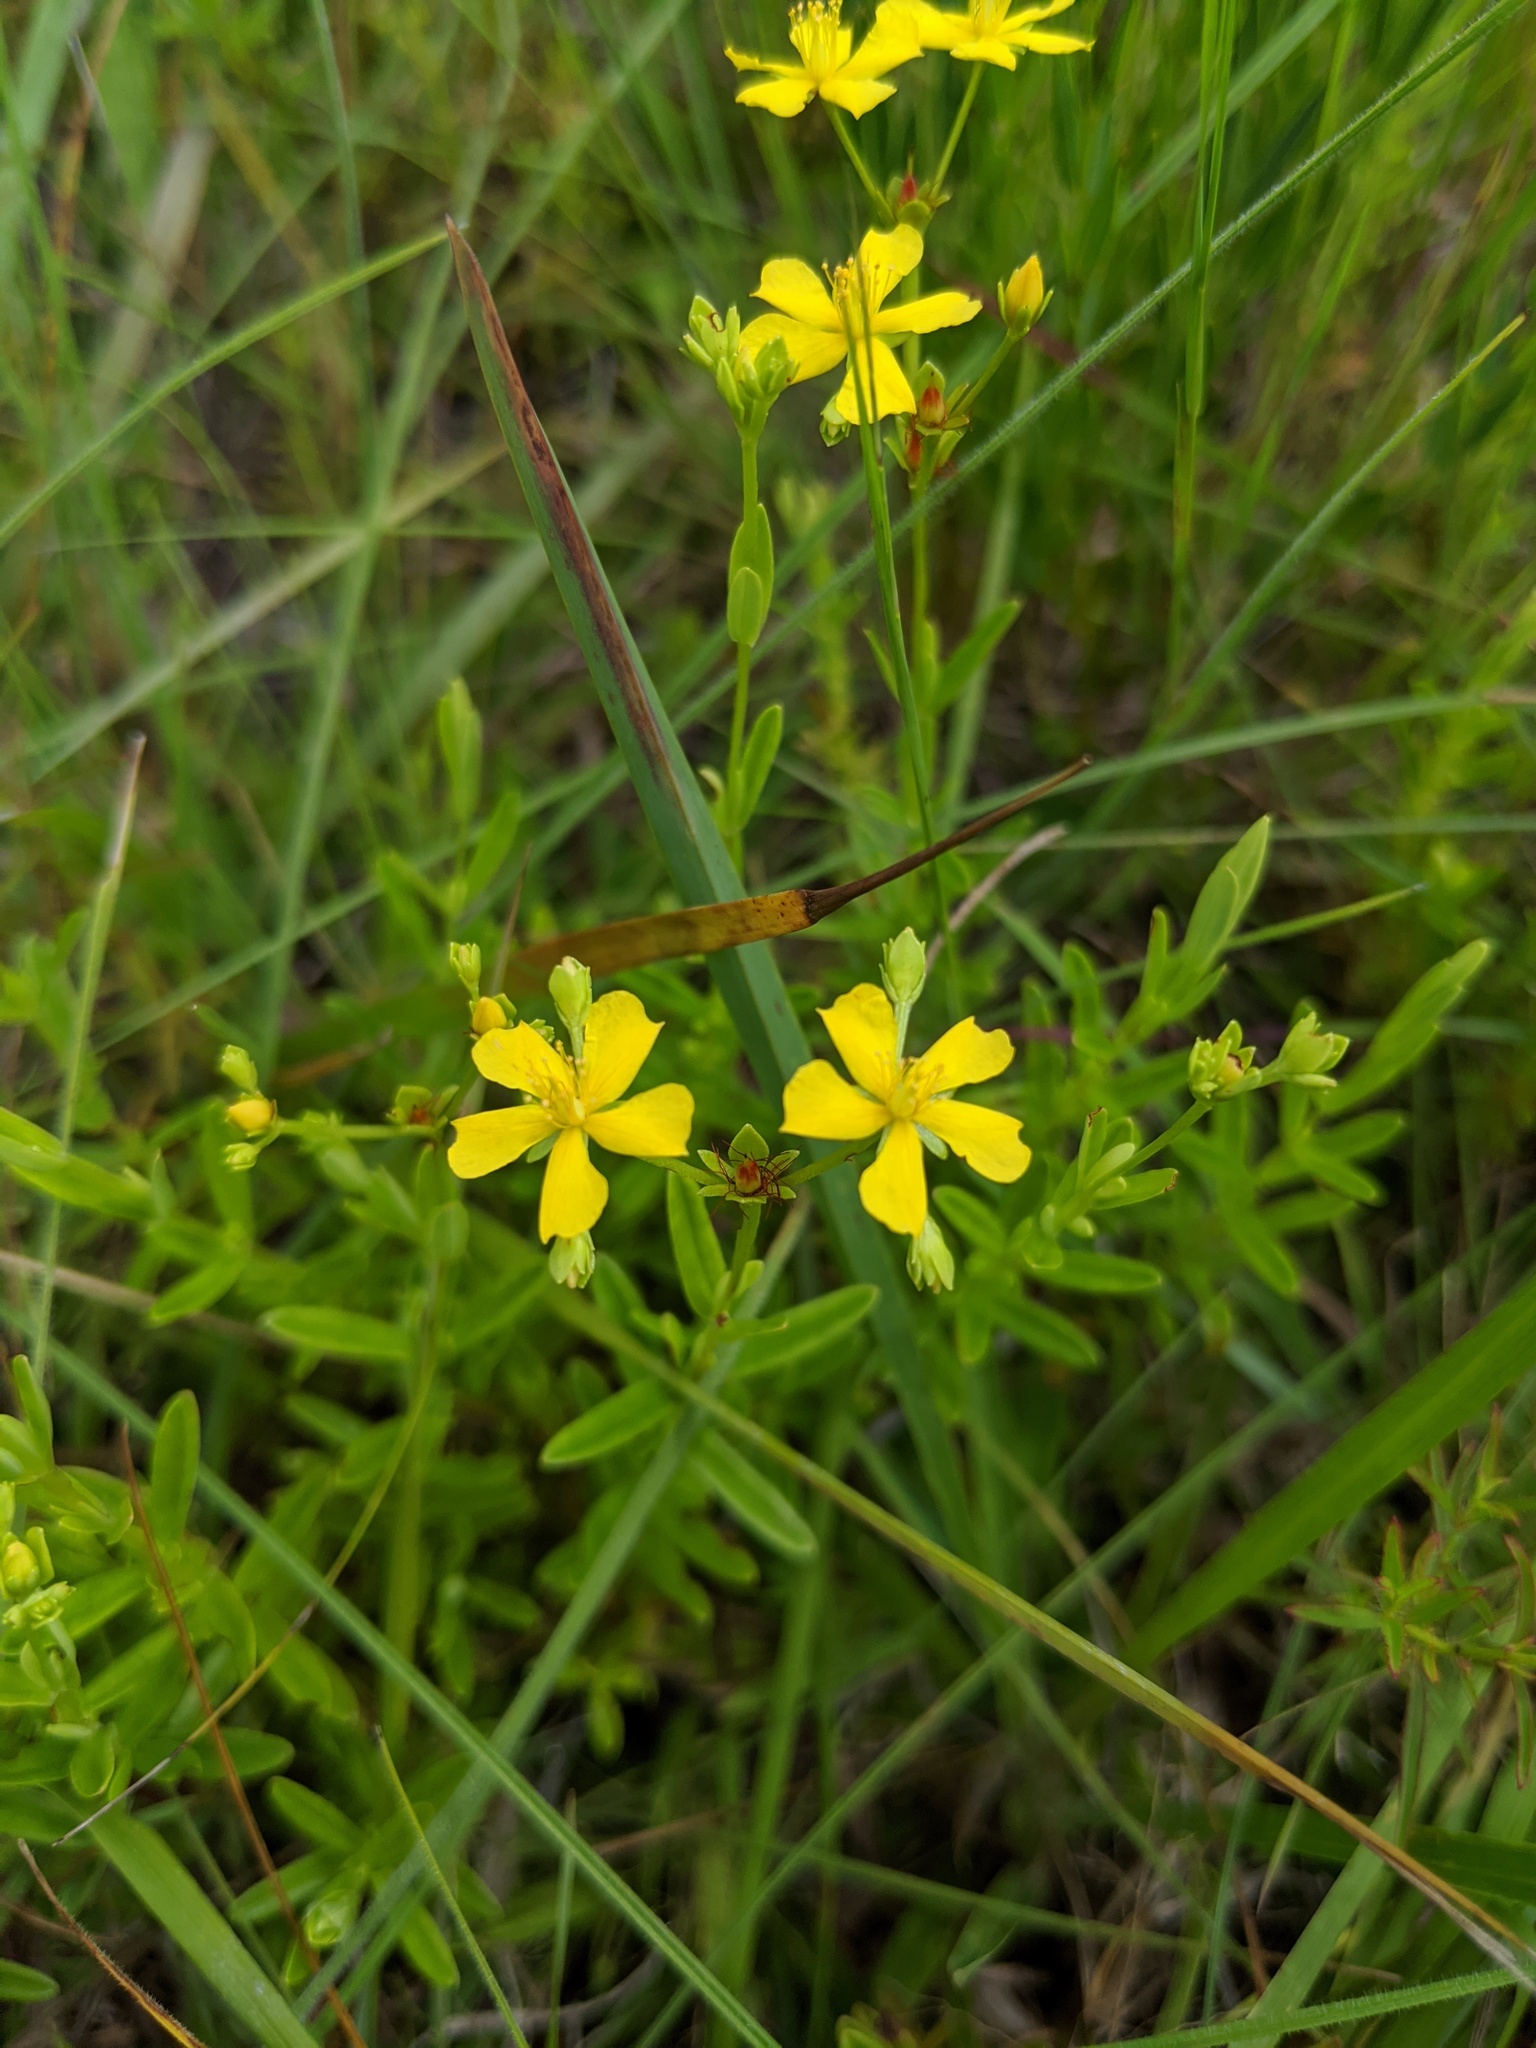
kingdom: Plantae
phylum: Tracheophyta
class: Magnoliopsida
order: Malpighiales
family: Hypericaceae
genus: Hypericum
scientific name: Hypericum cistifolium
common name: Round-pod st. john's-wort
